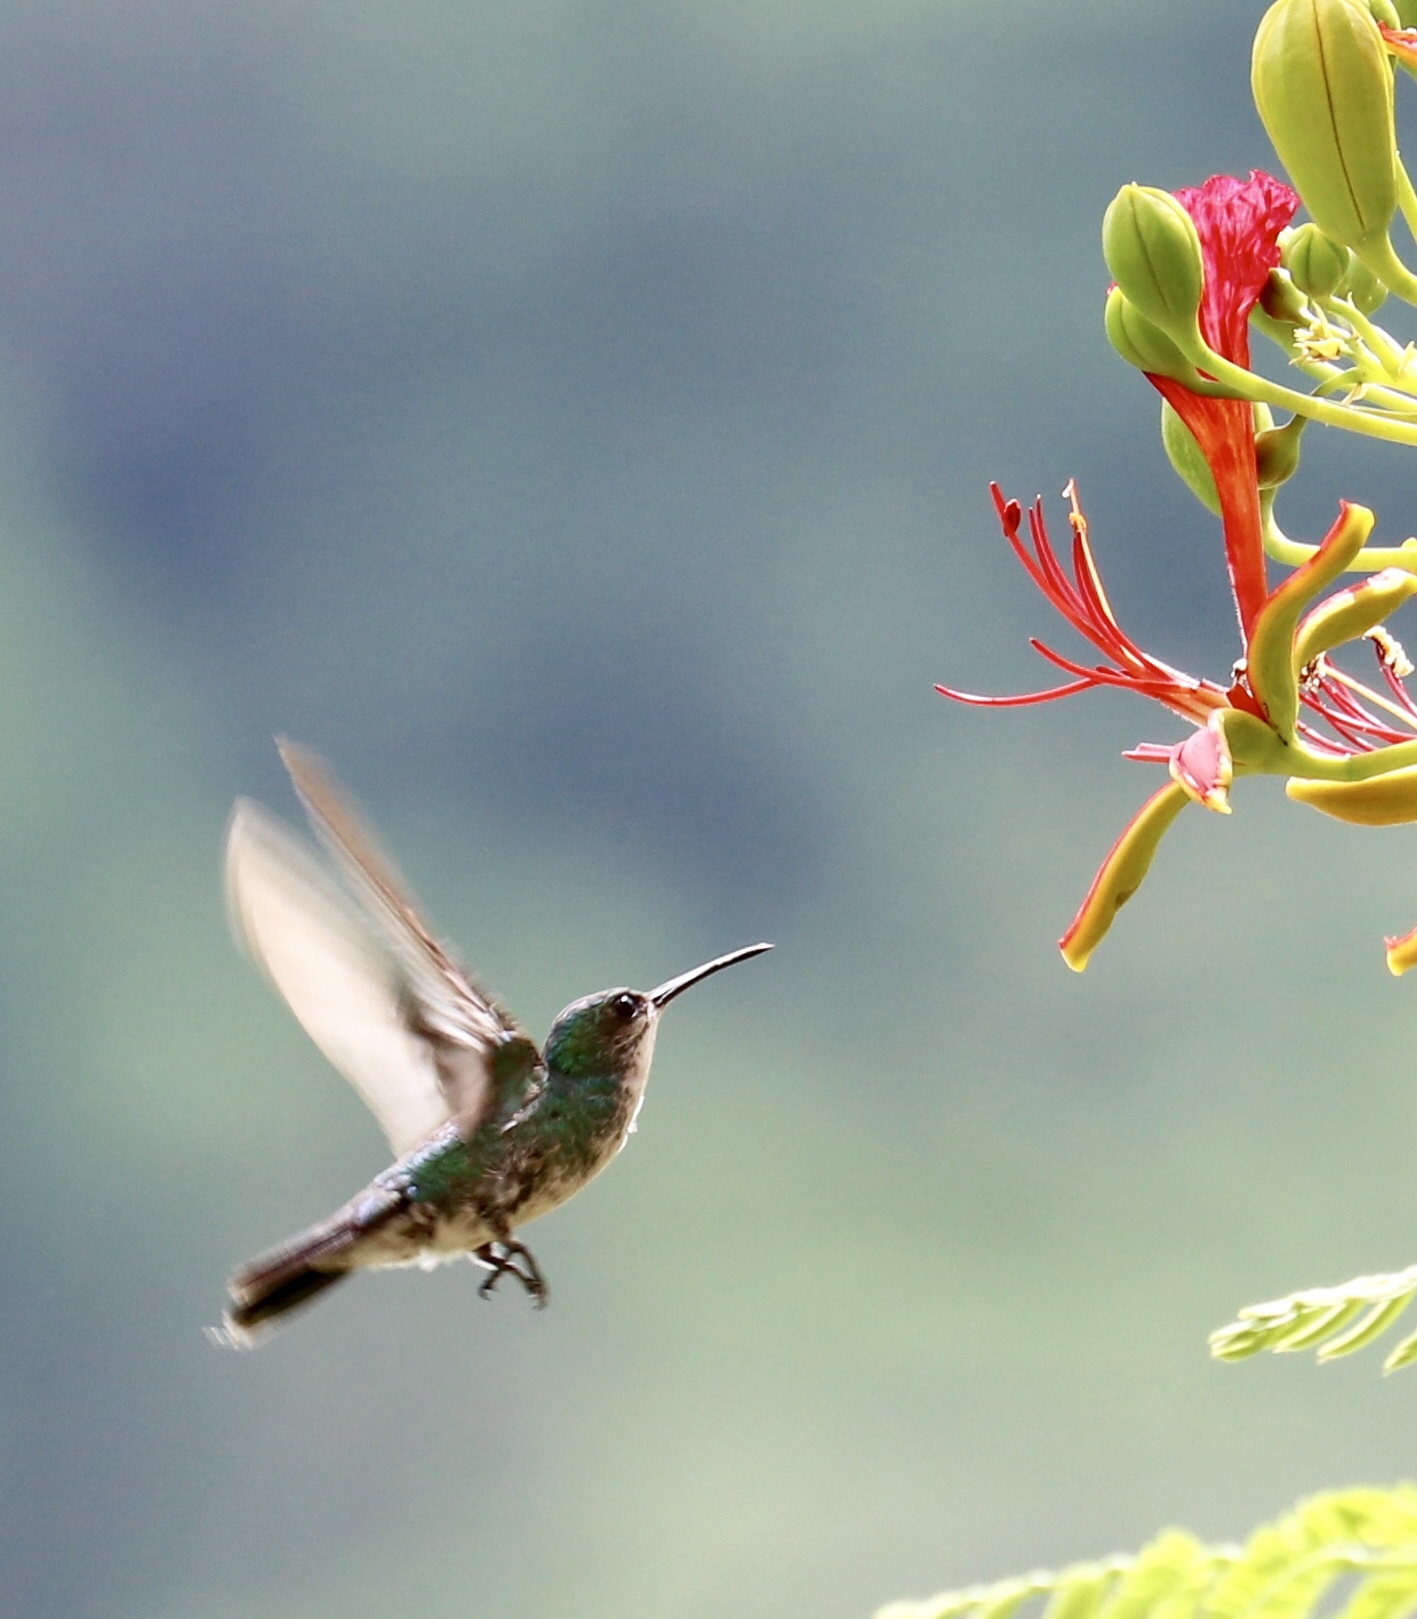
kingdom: Animalia
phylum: Chordata
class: Aves
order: Apodiformes
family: Trochilidae
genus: Chalybura
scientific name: Chalybura buffonii
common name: White-vented plumeleteer
